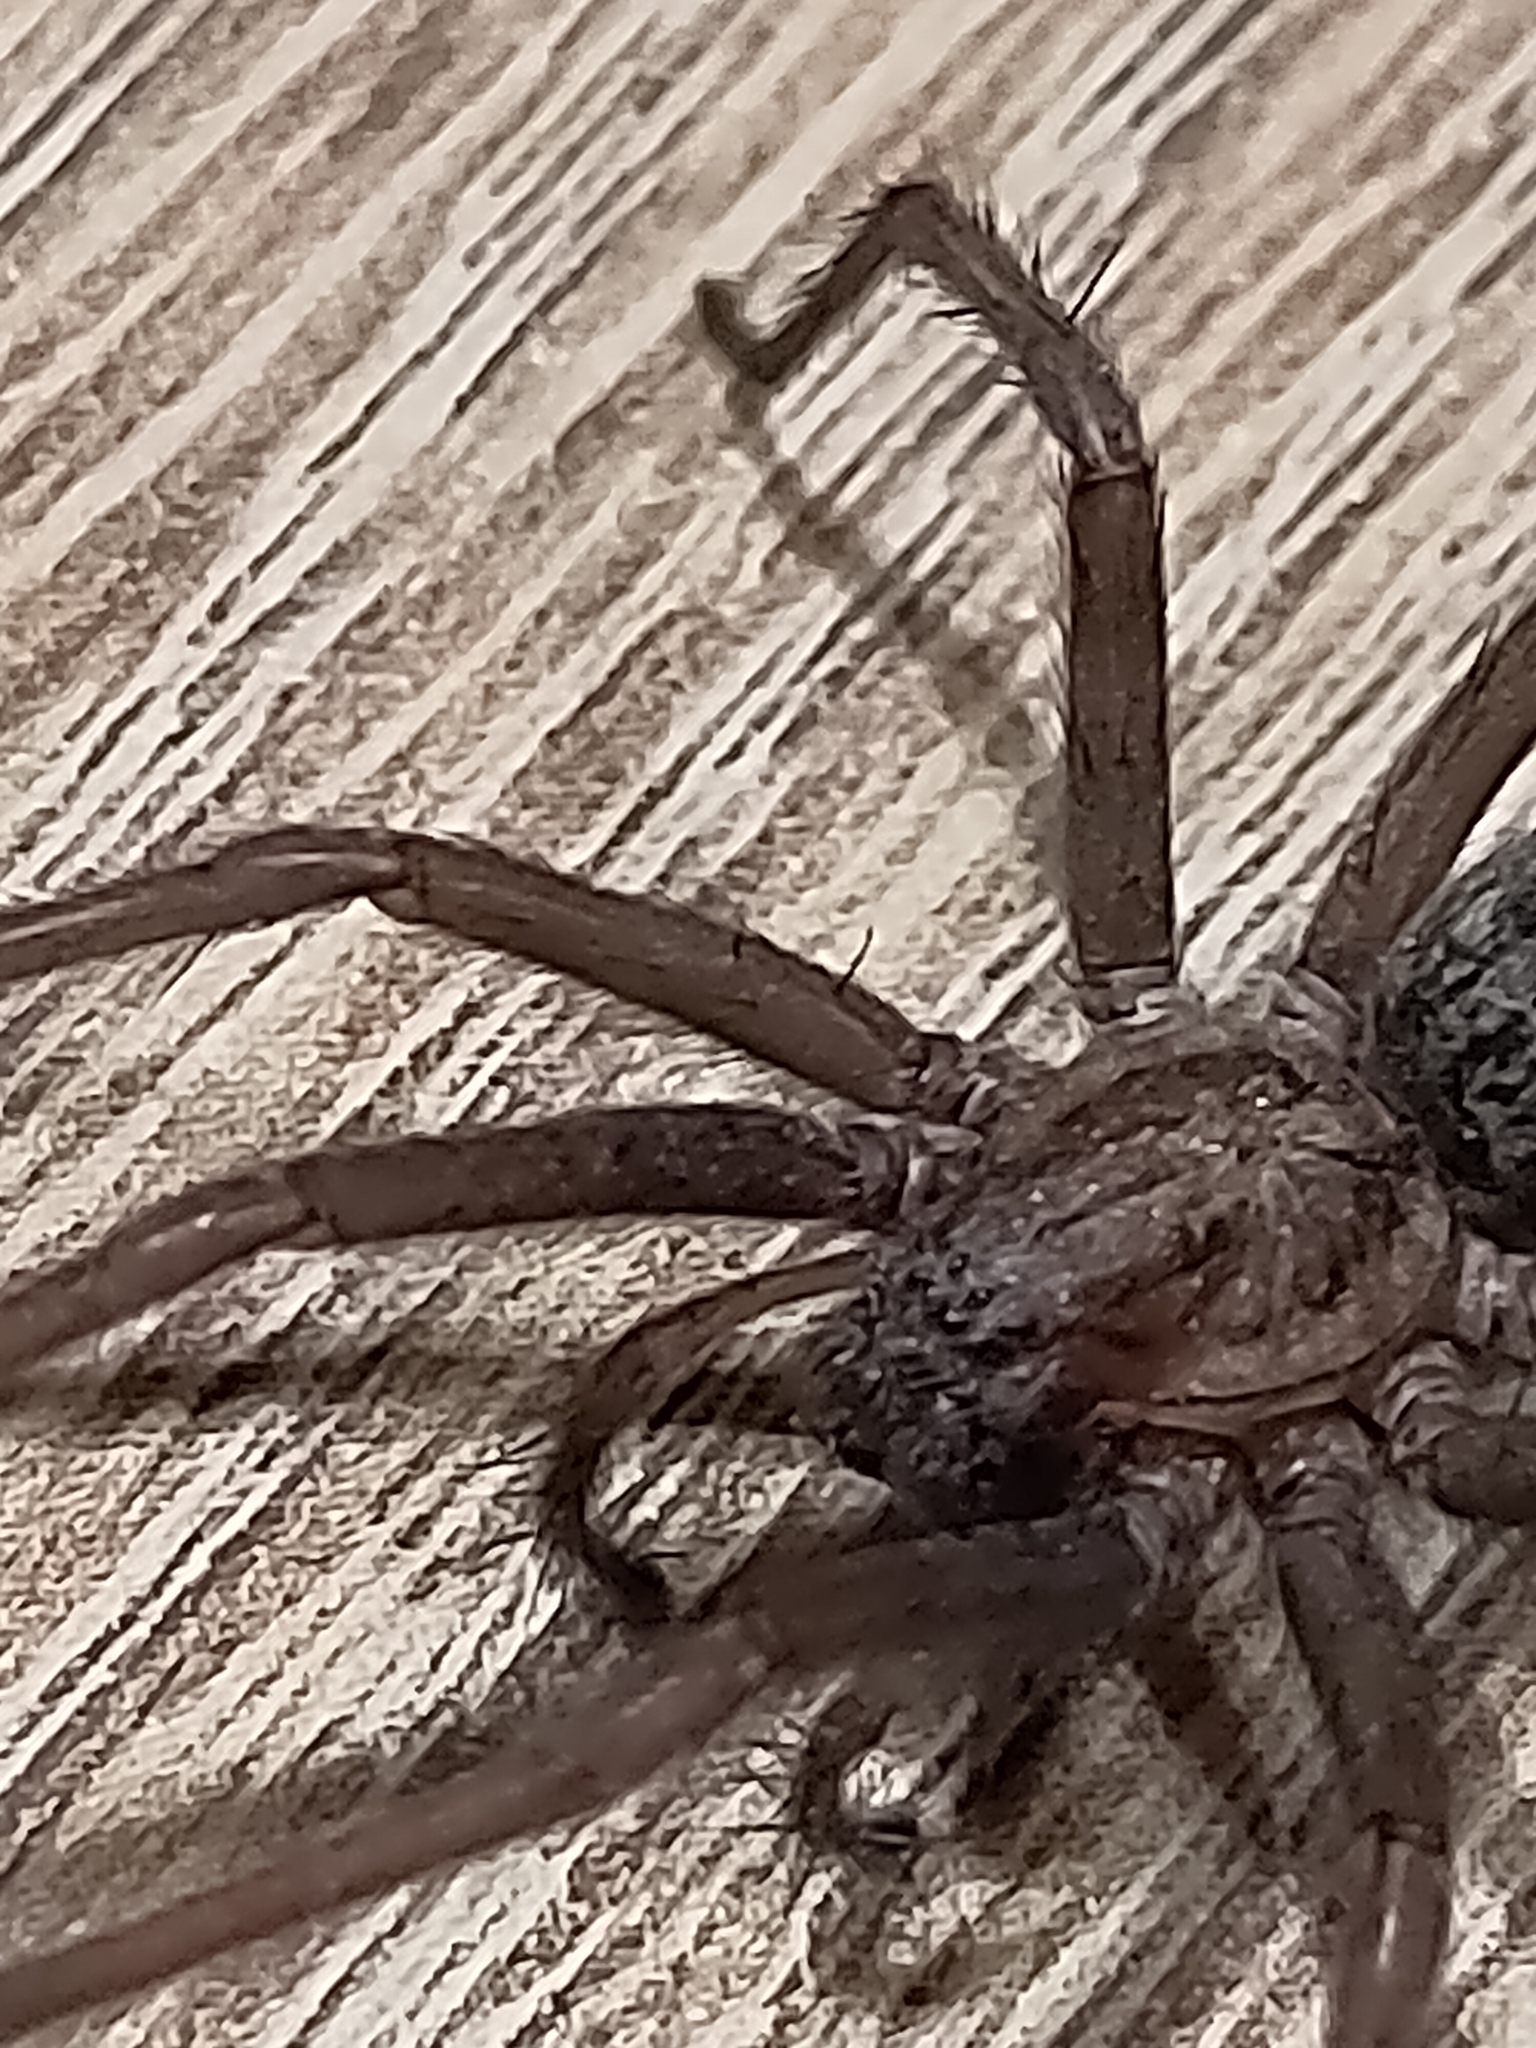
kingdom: Animalia
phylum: Arthropoda
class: Arachnida
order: Araneae
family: Agelenidae
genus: Eratigena
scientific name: Eratigena atrica
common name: Giant house spider
